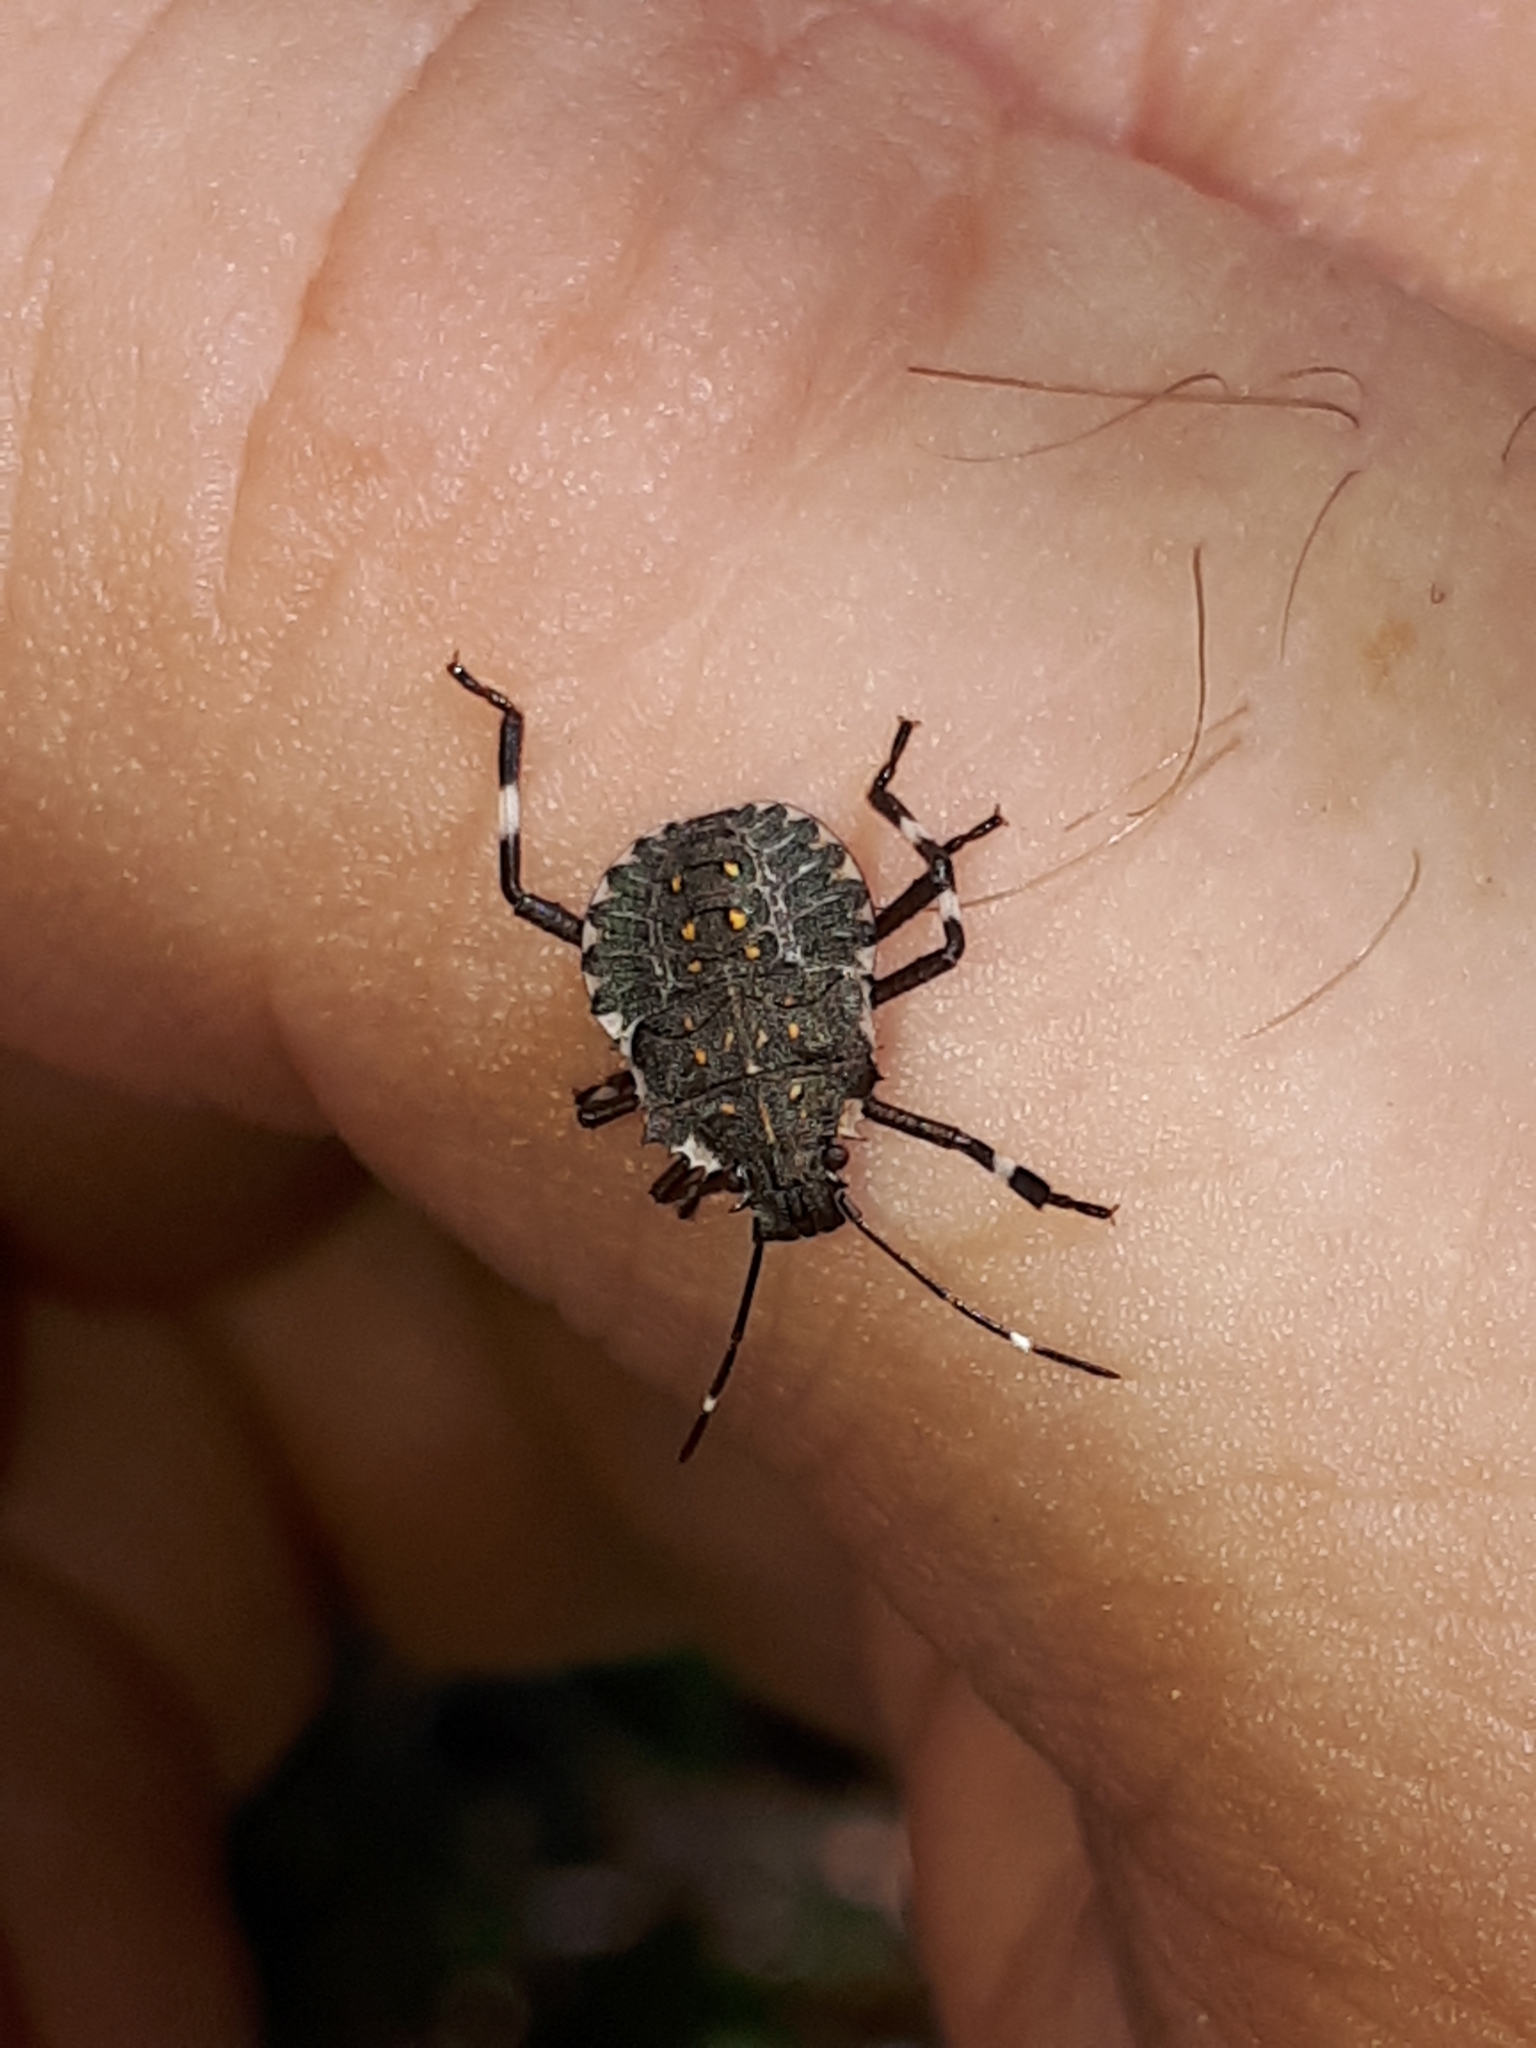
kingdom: Animalia
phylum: Arthropoda
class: Insecta
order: Hemiptera
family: Pentatomidae
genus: Halyomorpha
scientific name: Halyomorpha halys
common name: Brown marmorated stink bug
